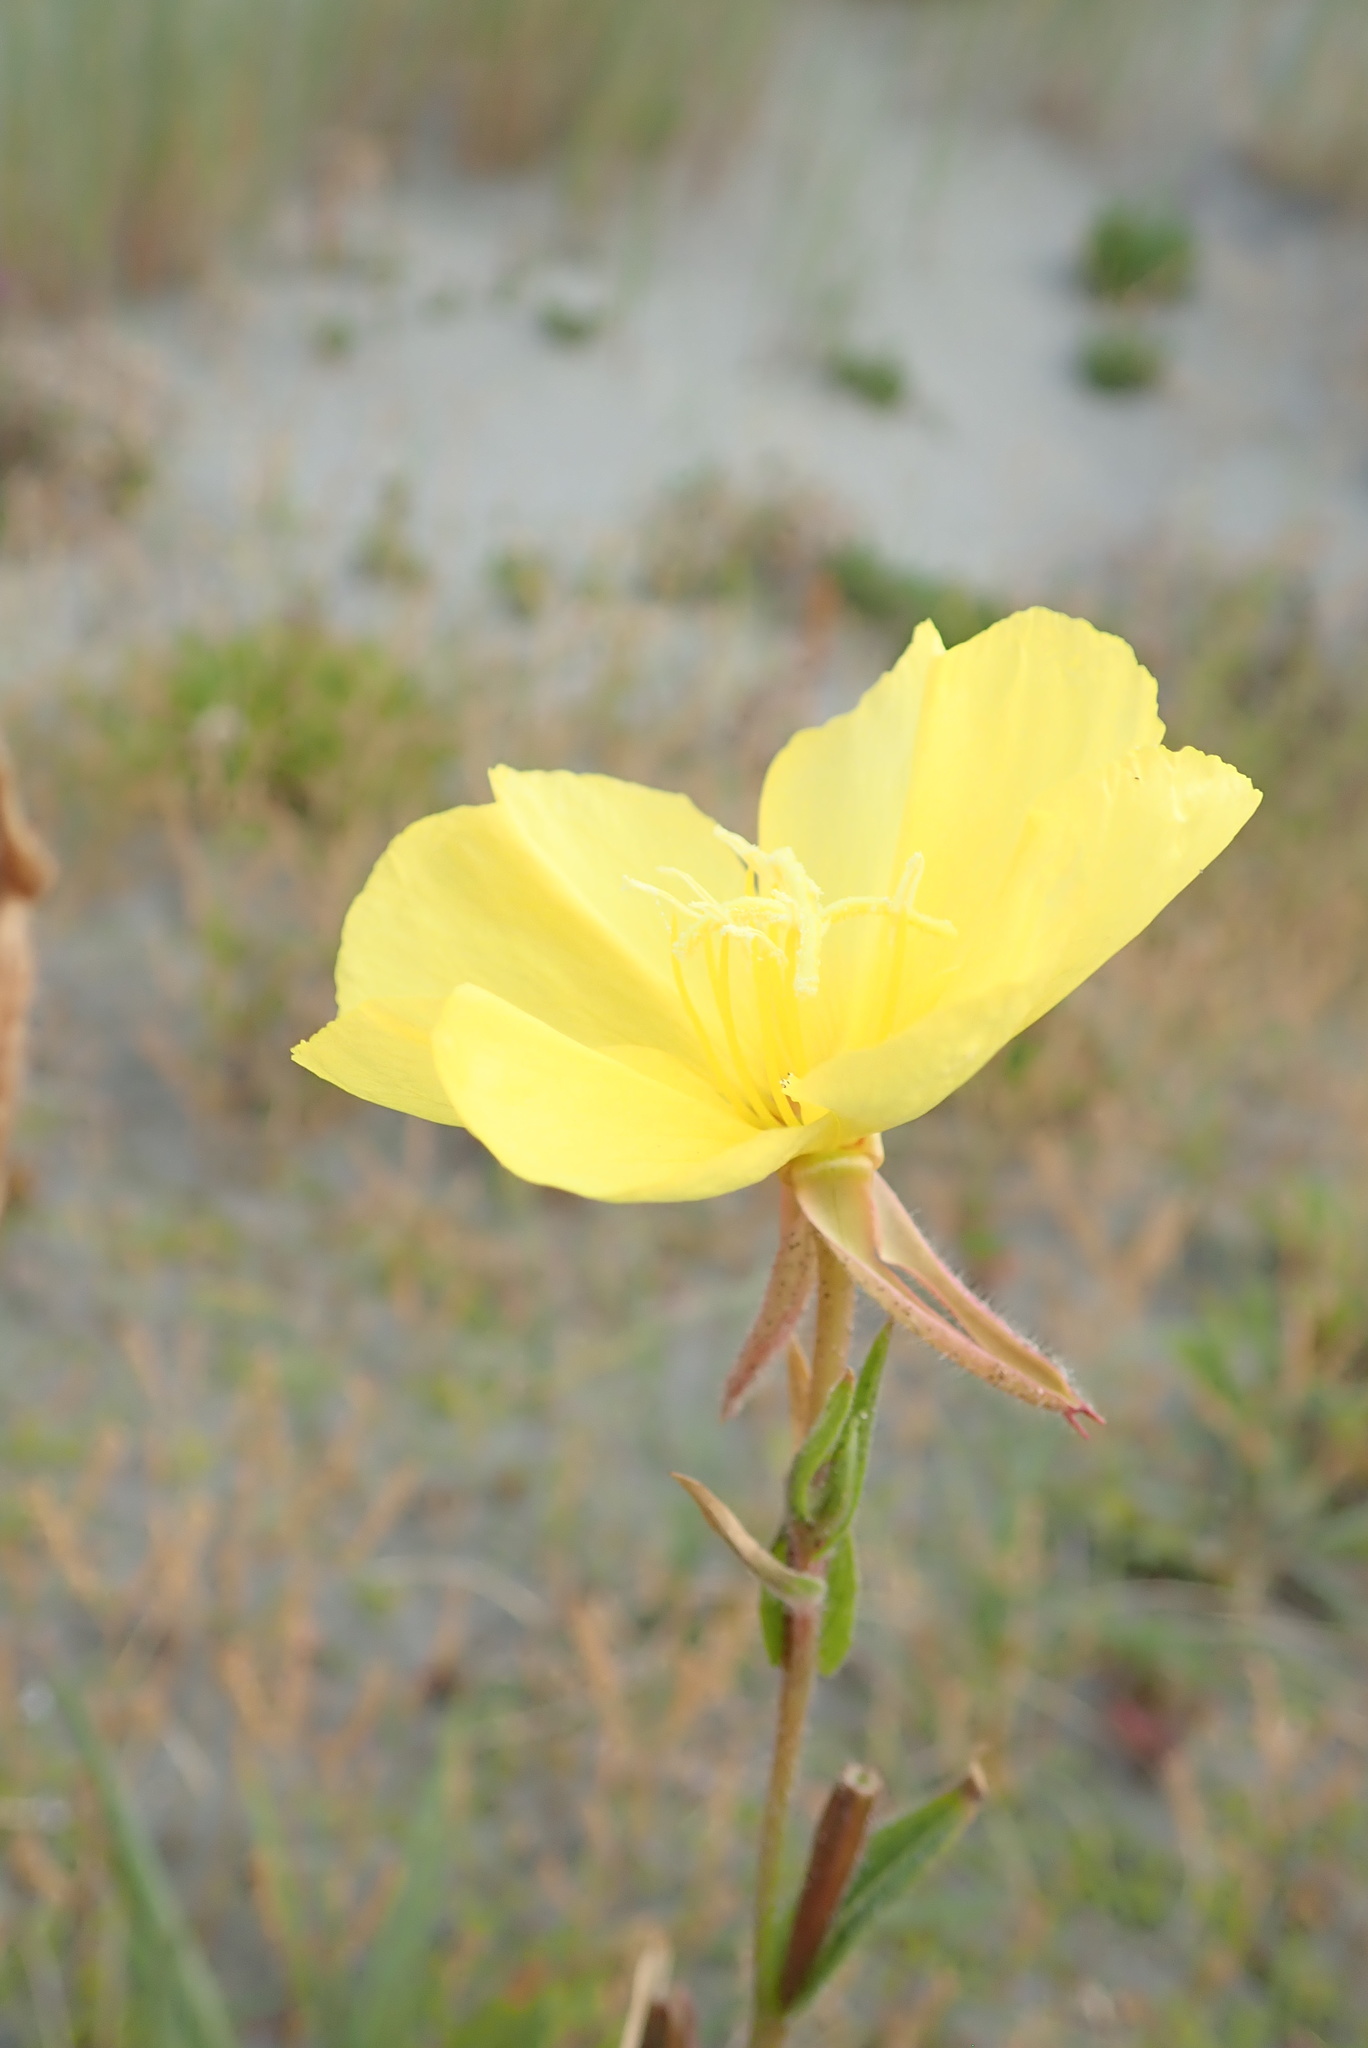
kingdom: Plantae
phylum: Tracheophyta
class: Magnoliopsida
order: Myrtales
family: Onagraceae
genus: Oenothera
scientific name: Oenothera stricta
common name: Fragrant evening-primrose
